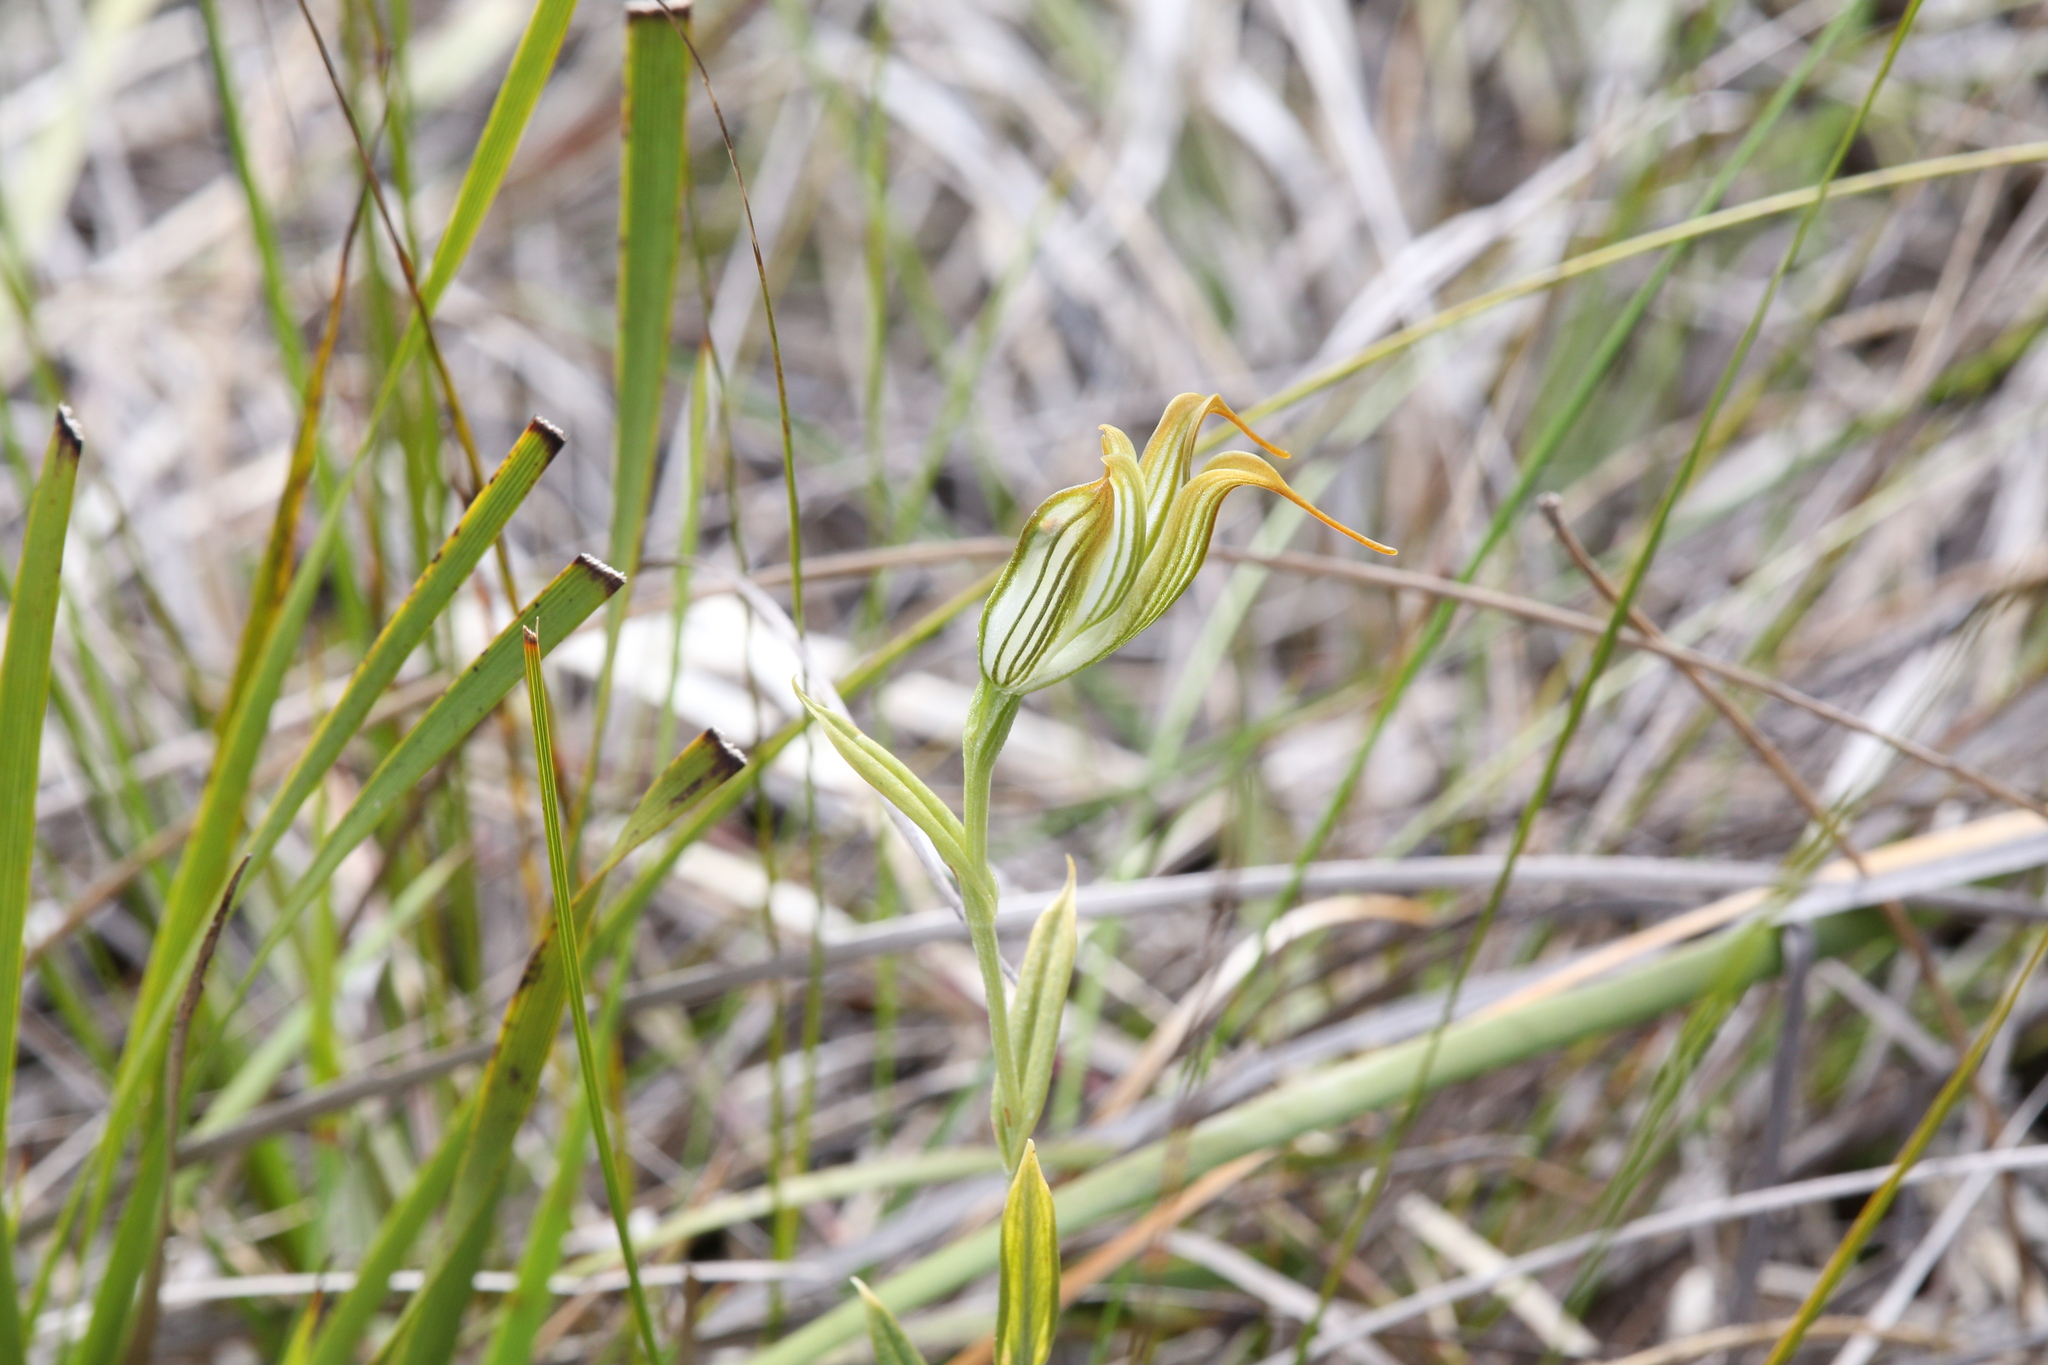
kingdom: Plantae
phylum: Tracheophyta
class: Liliopsida
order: Asparagales
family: Orchidaceae
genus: Pterostylis
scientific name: Pterostylis recurva
